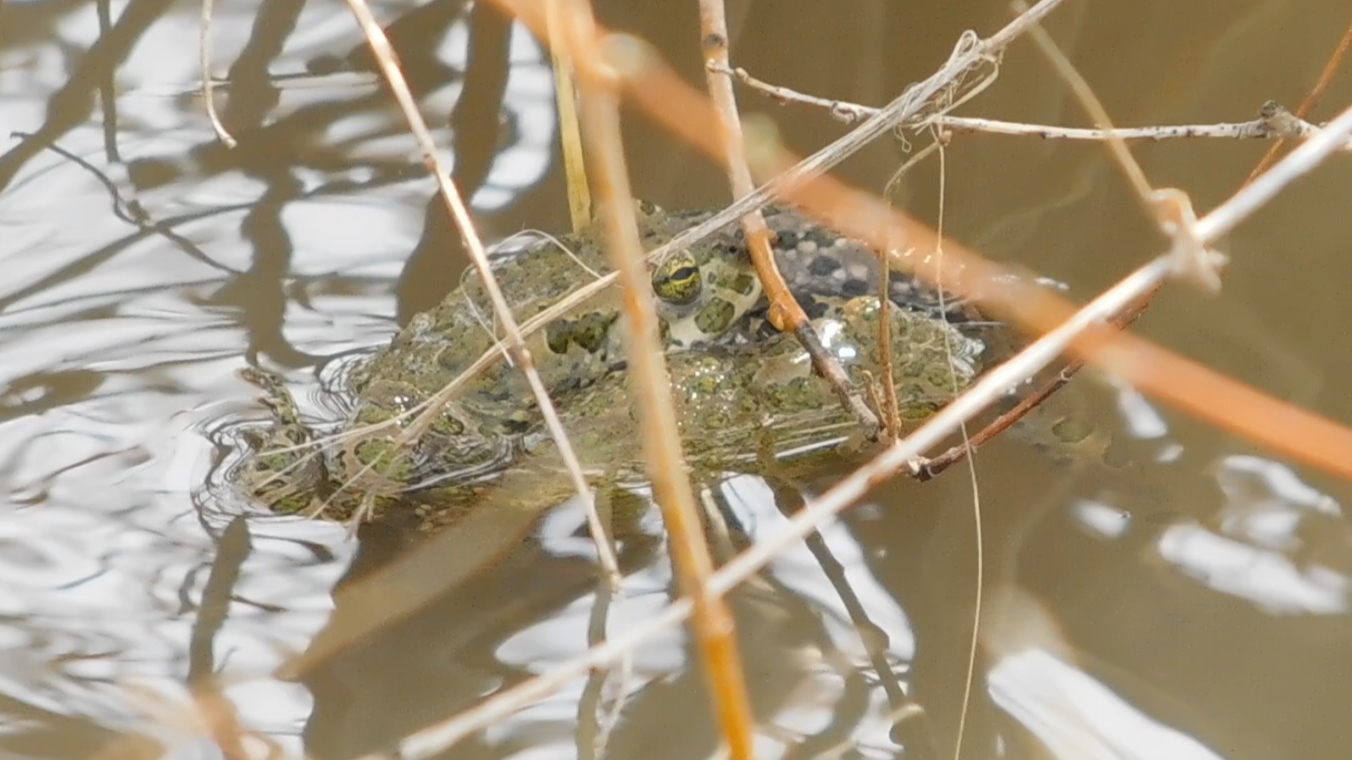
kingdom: Animalia
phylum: Chordata
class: Amphibia
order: Anura
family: Bufonidae
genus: Bufotes
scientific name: Bufotes viridis
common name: European green toad
